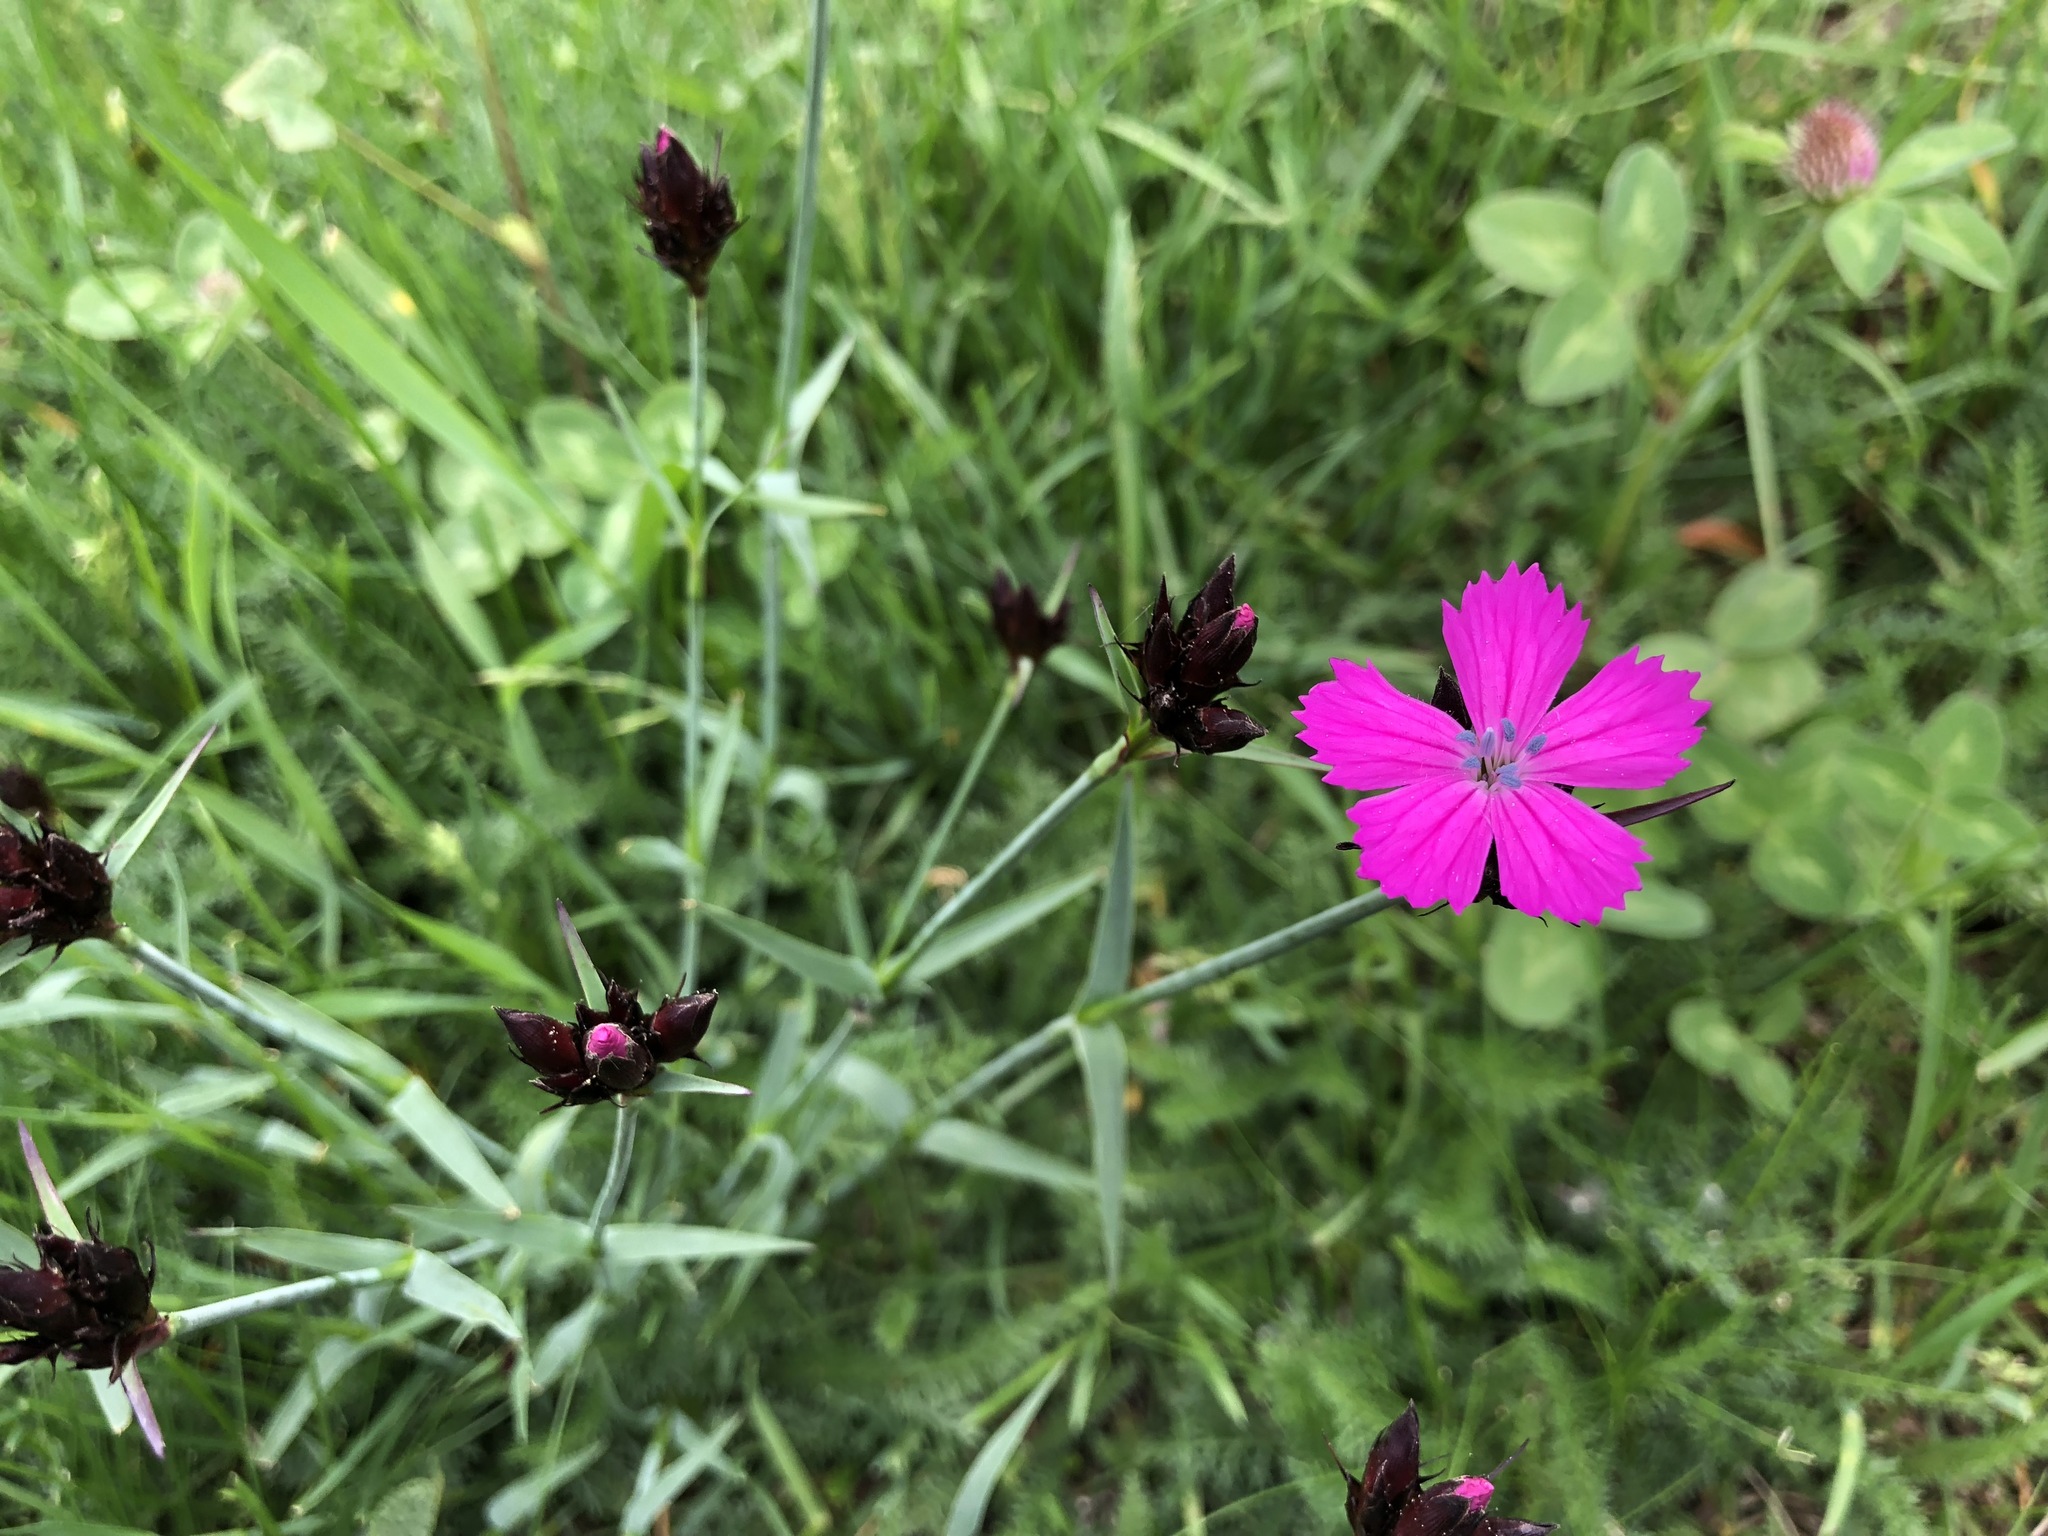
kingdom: Plantae
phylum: Tracheophyta
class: Magnoliopsida
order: Caryophyllales
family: Caryophyllaceae
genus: Dianthus
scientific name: Dianthus carthusianorum
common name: Carthusian pink
